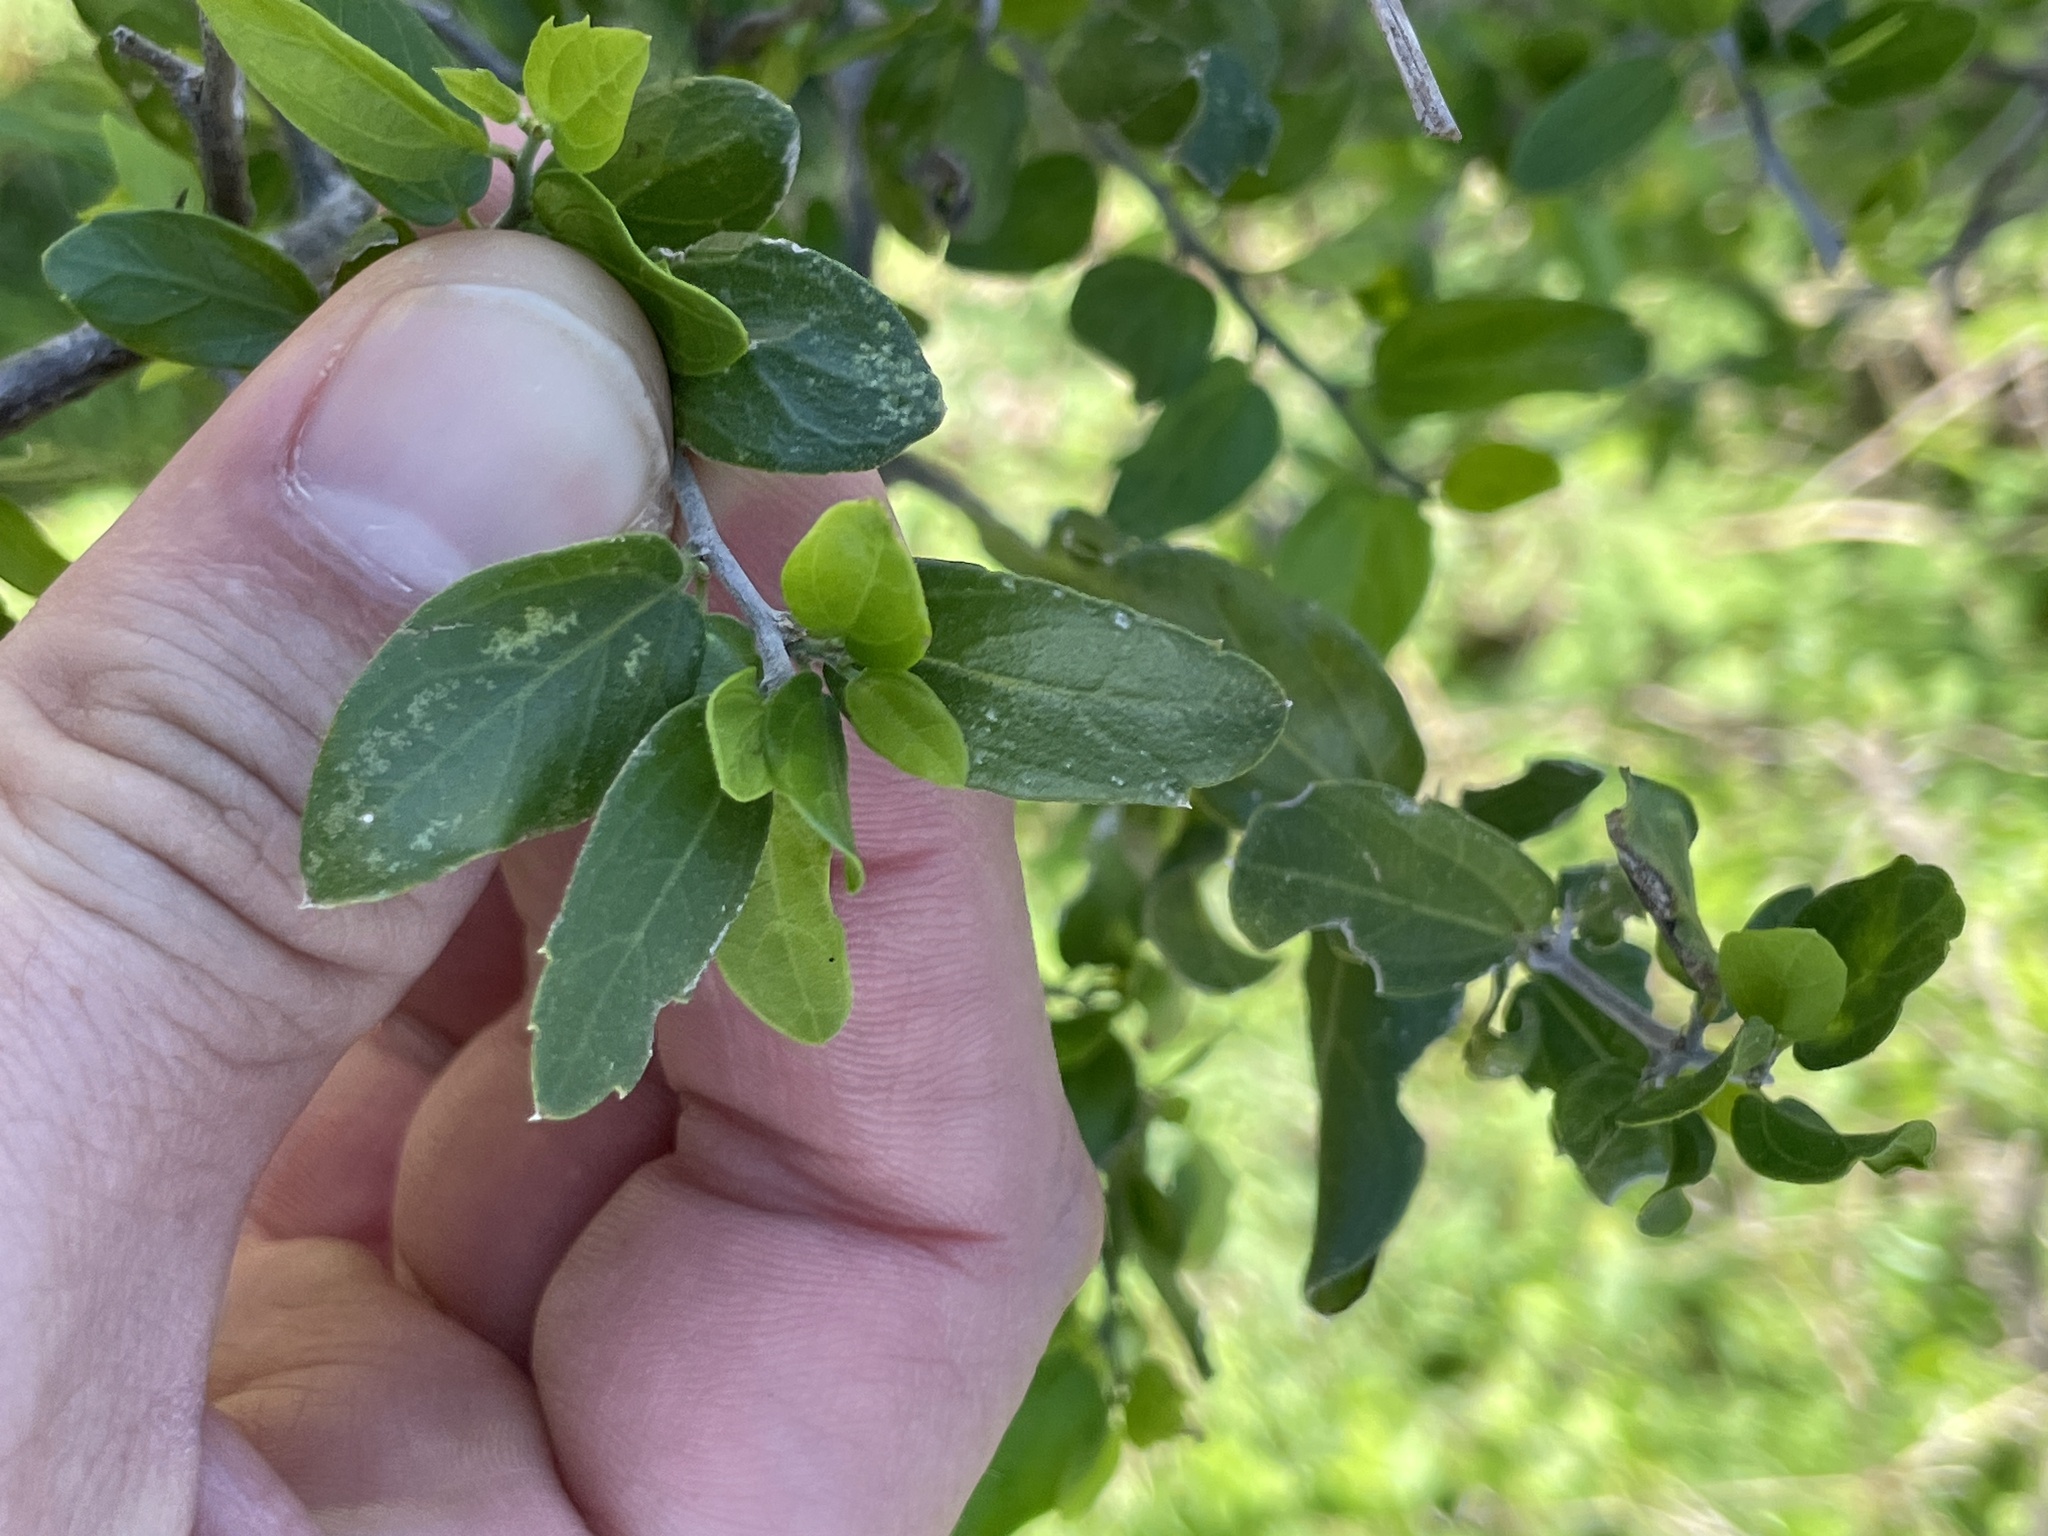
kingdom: Plantae
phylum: Tracheophyta
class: Magnoliopsida
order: Rosales
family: Cannabaceae
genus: Celtis
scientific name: Celtis pallida
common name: Desert hackberry
